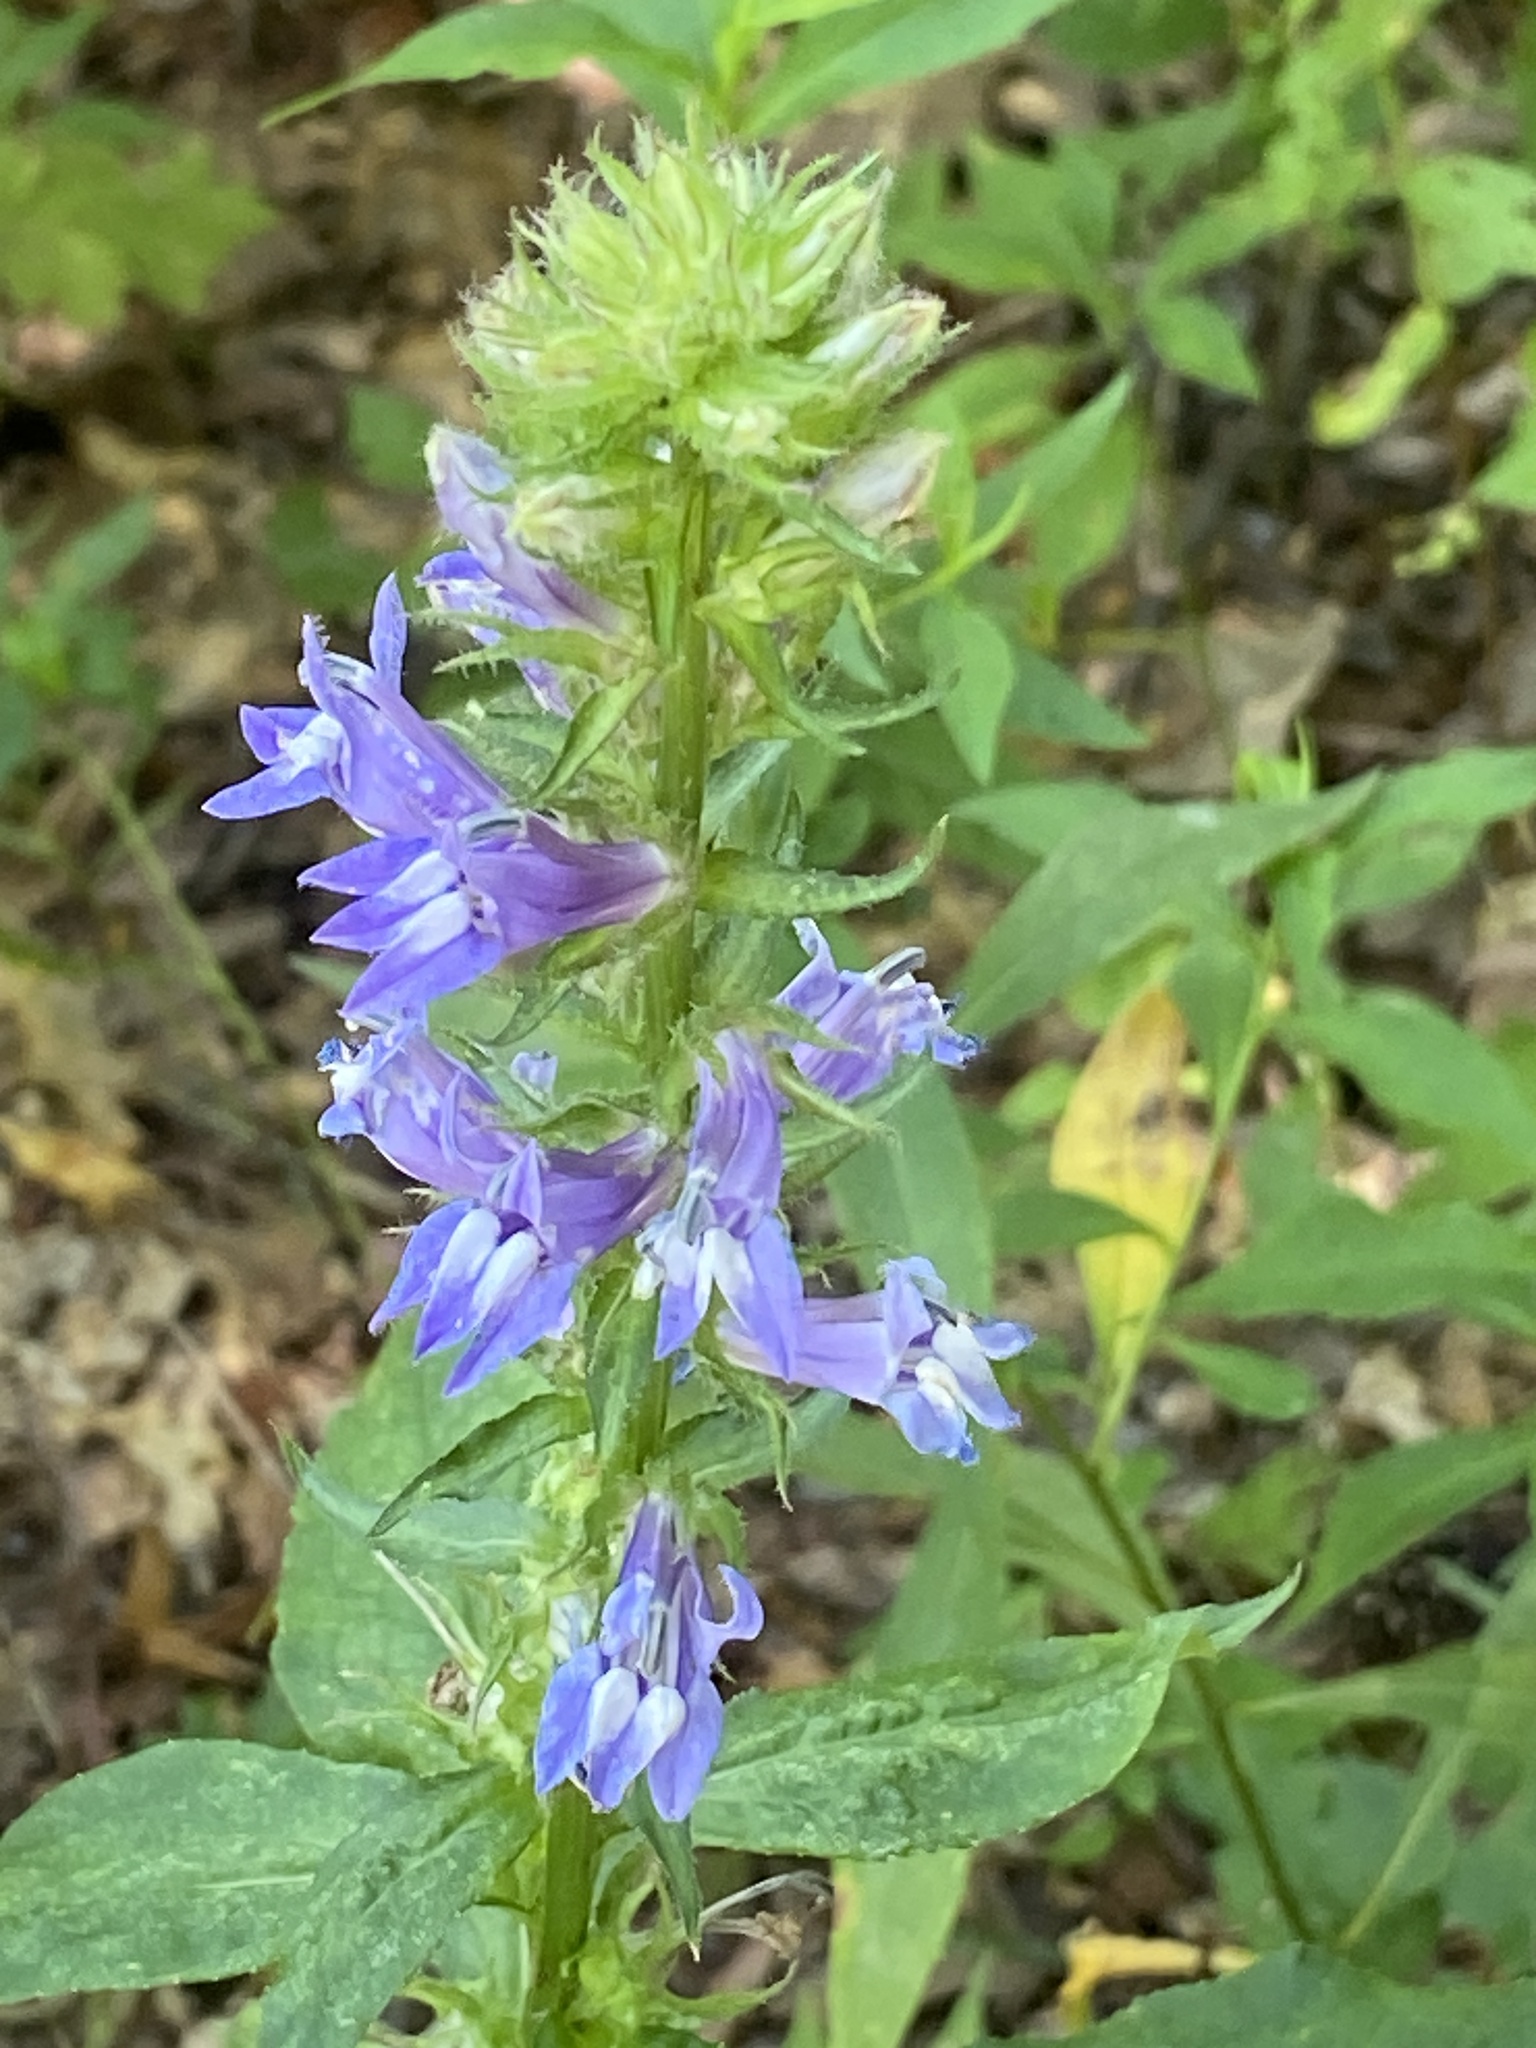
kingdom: Plantae
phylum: Tracheophyta
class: Magnoliopsida
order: Asterales
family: Campanulaceae
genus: Lobelia
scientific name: Lobelia siphilitica
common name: Great lobelia
